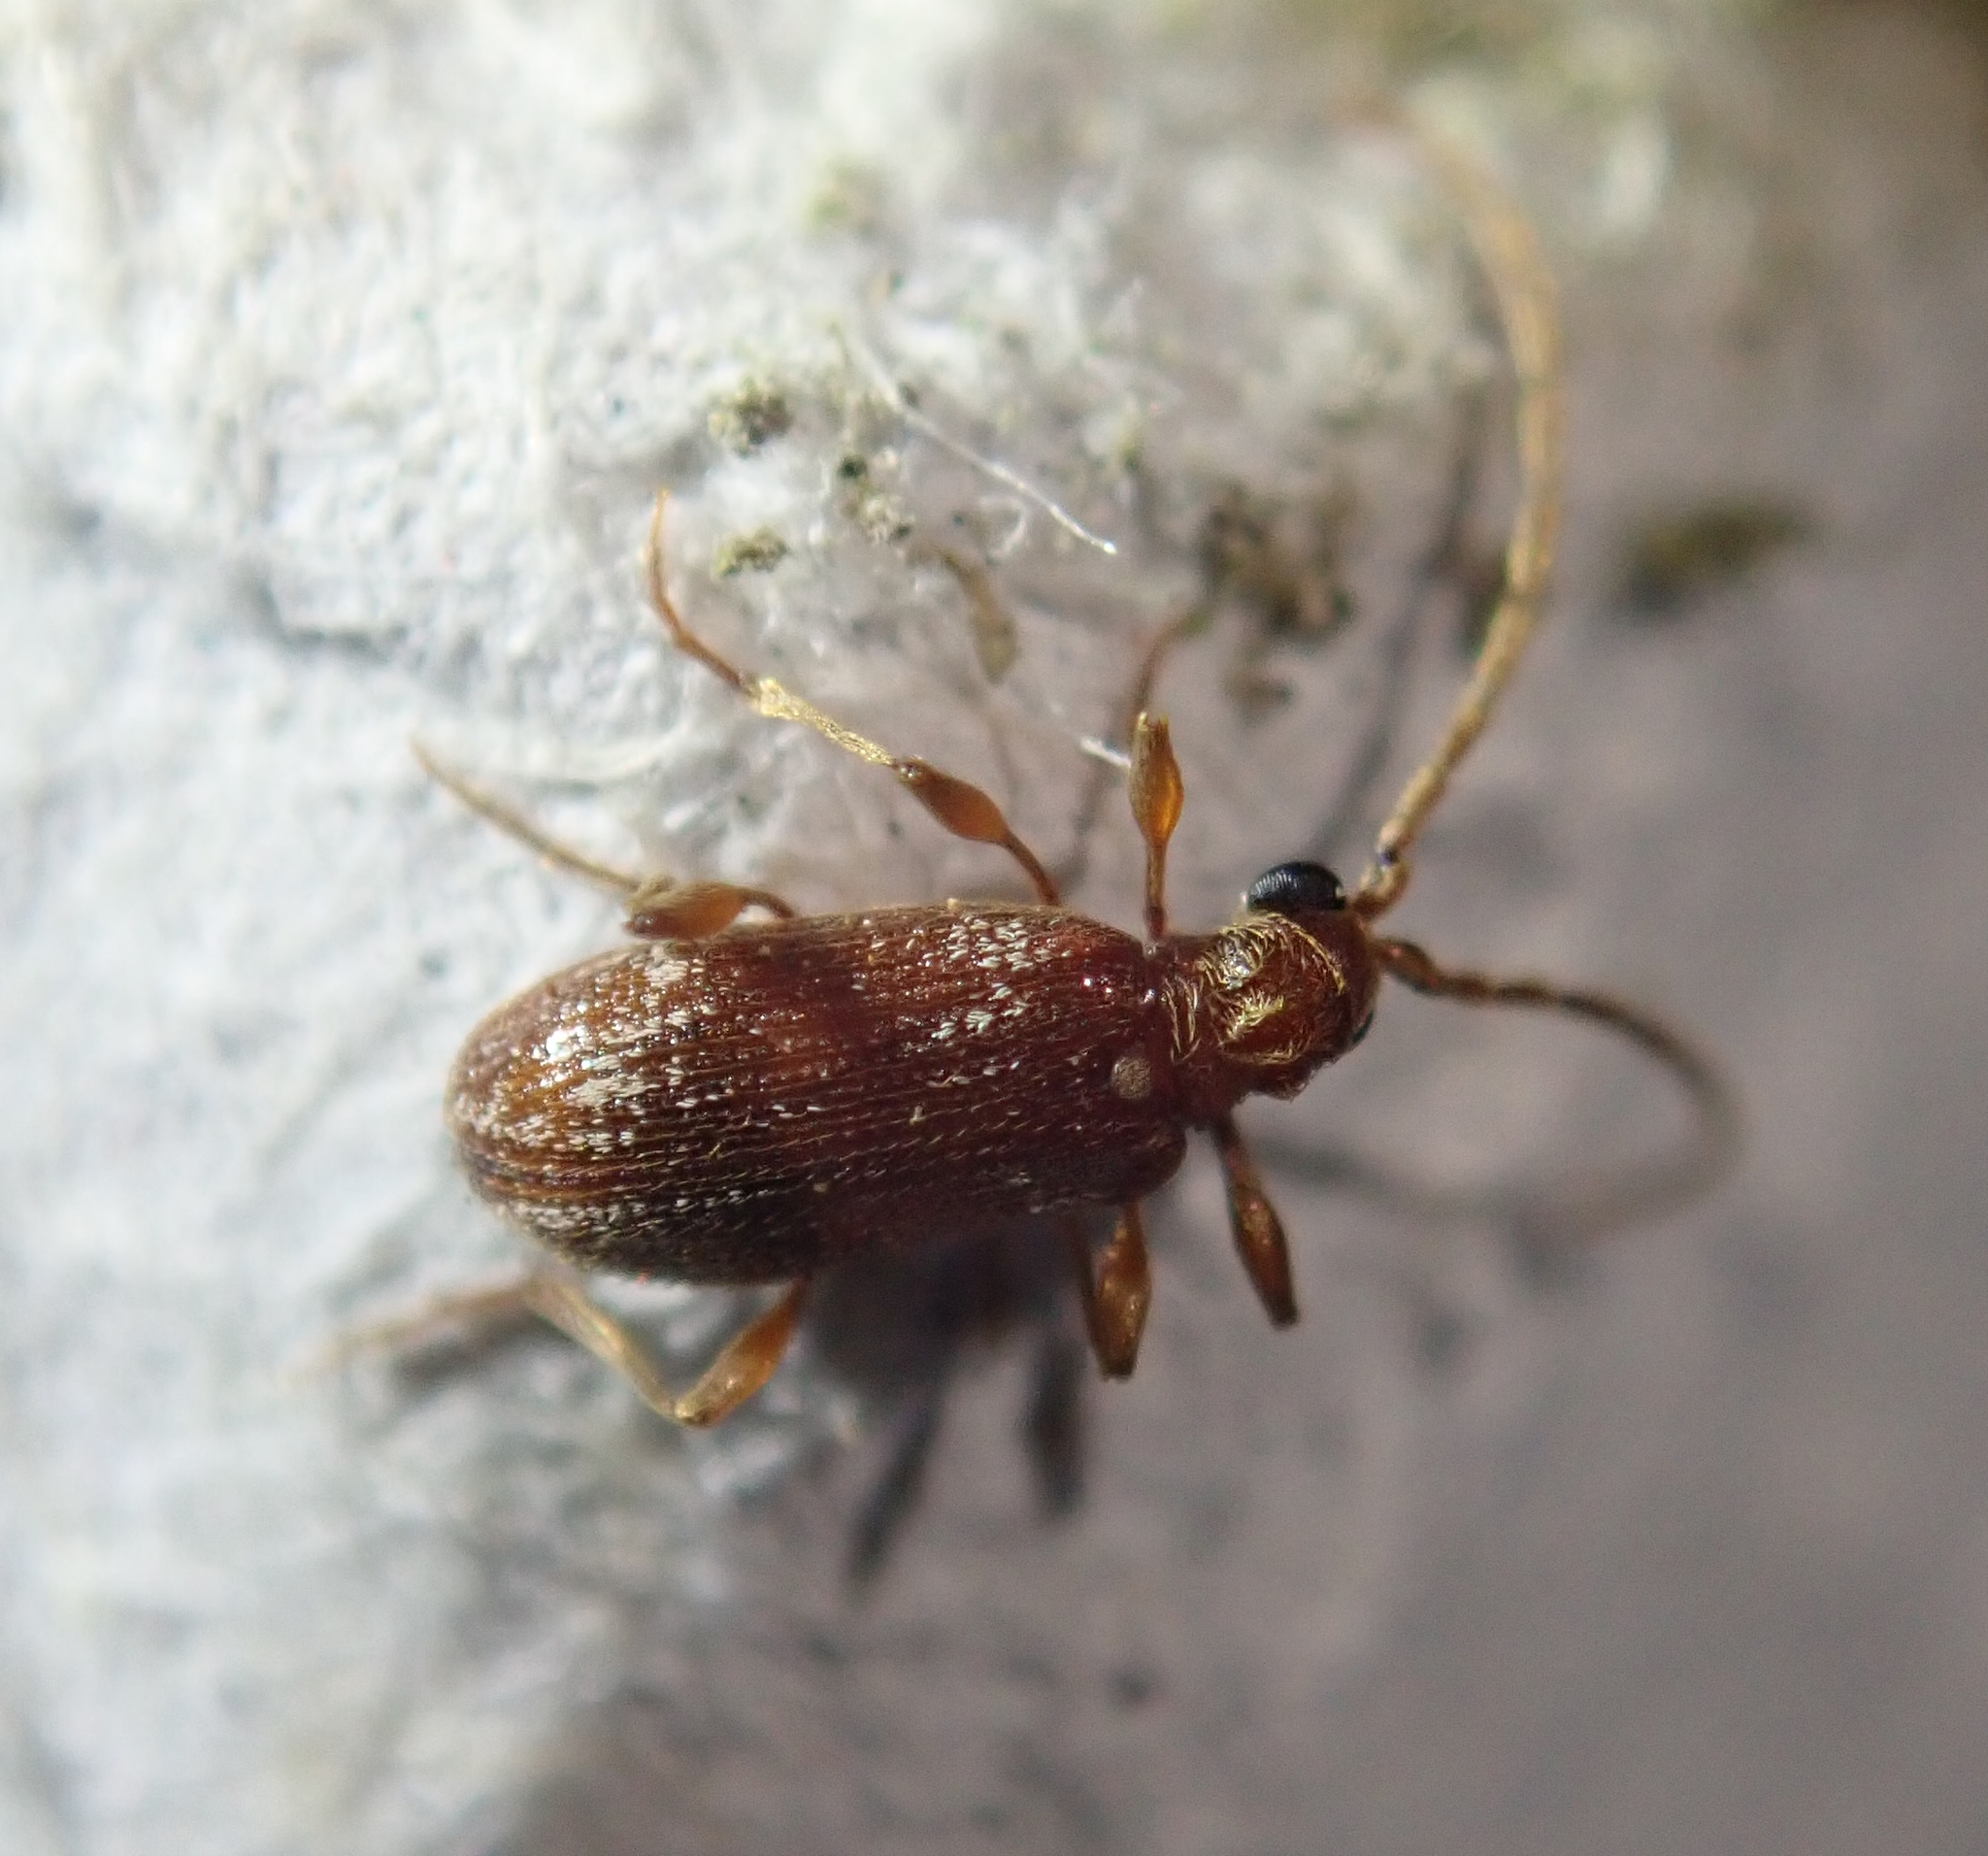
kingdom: Animalia
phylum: Arthropoda
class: Insecta
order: Coleoptera
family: Ptinidae
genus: Ptinus
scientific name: Ptinus fur
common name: White-marked spider beetle
